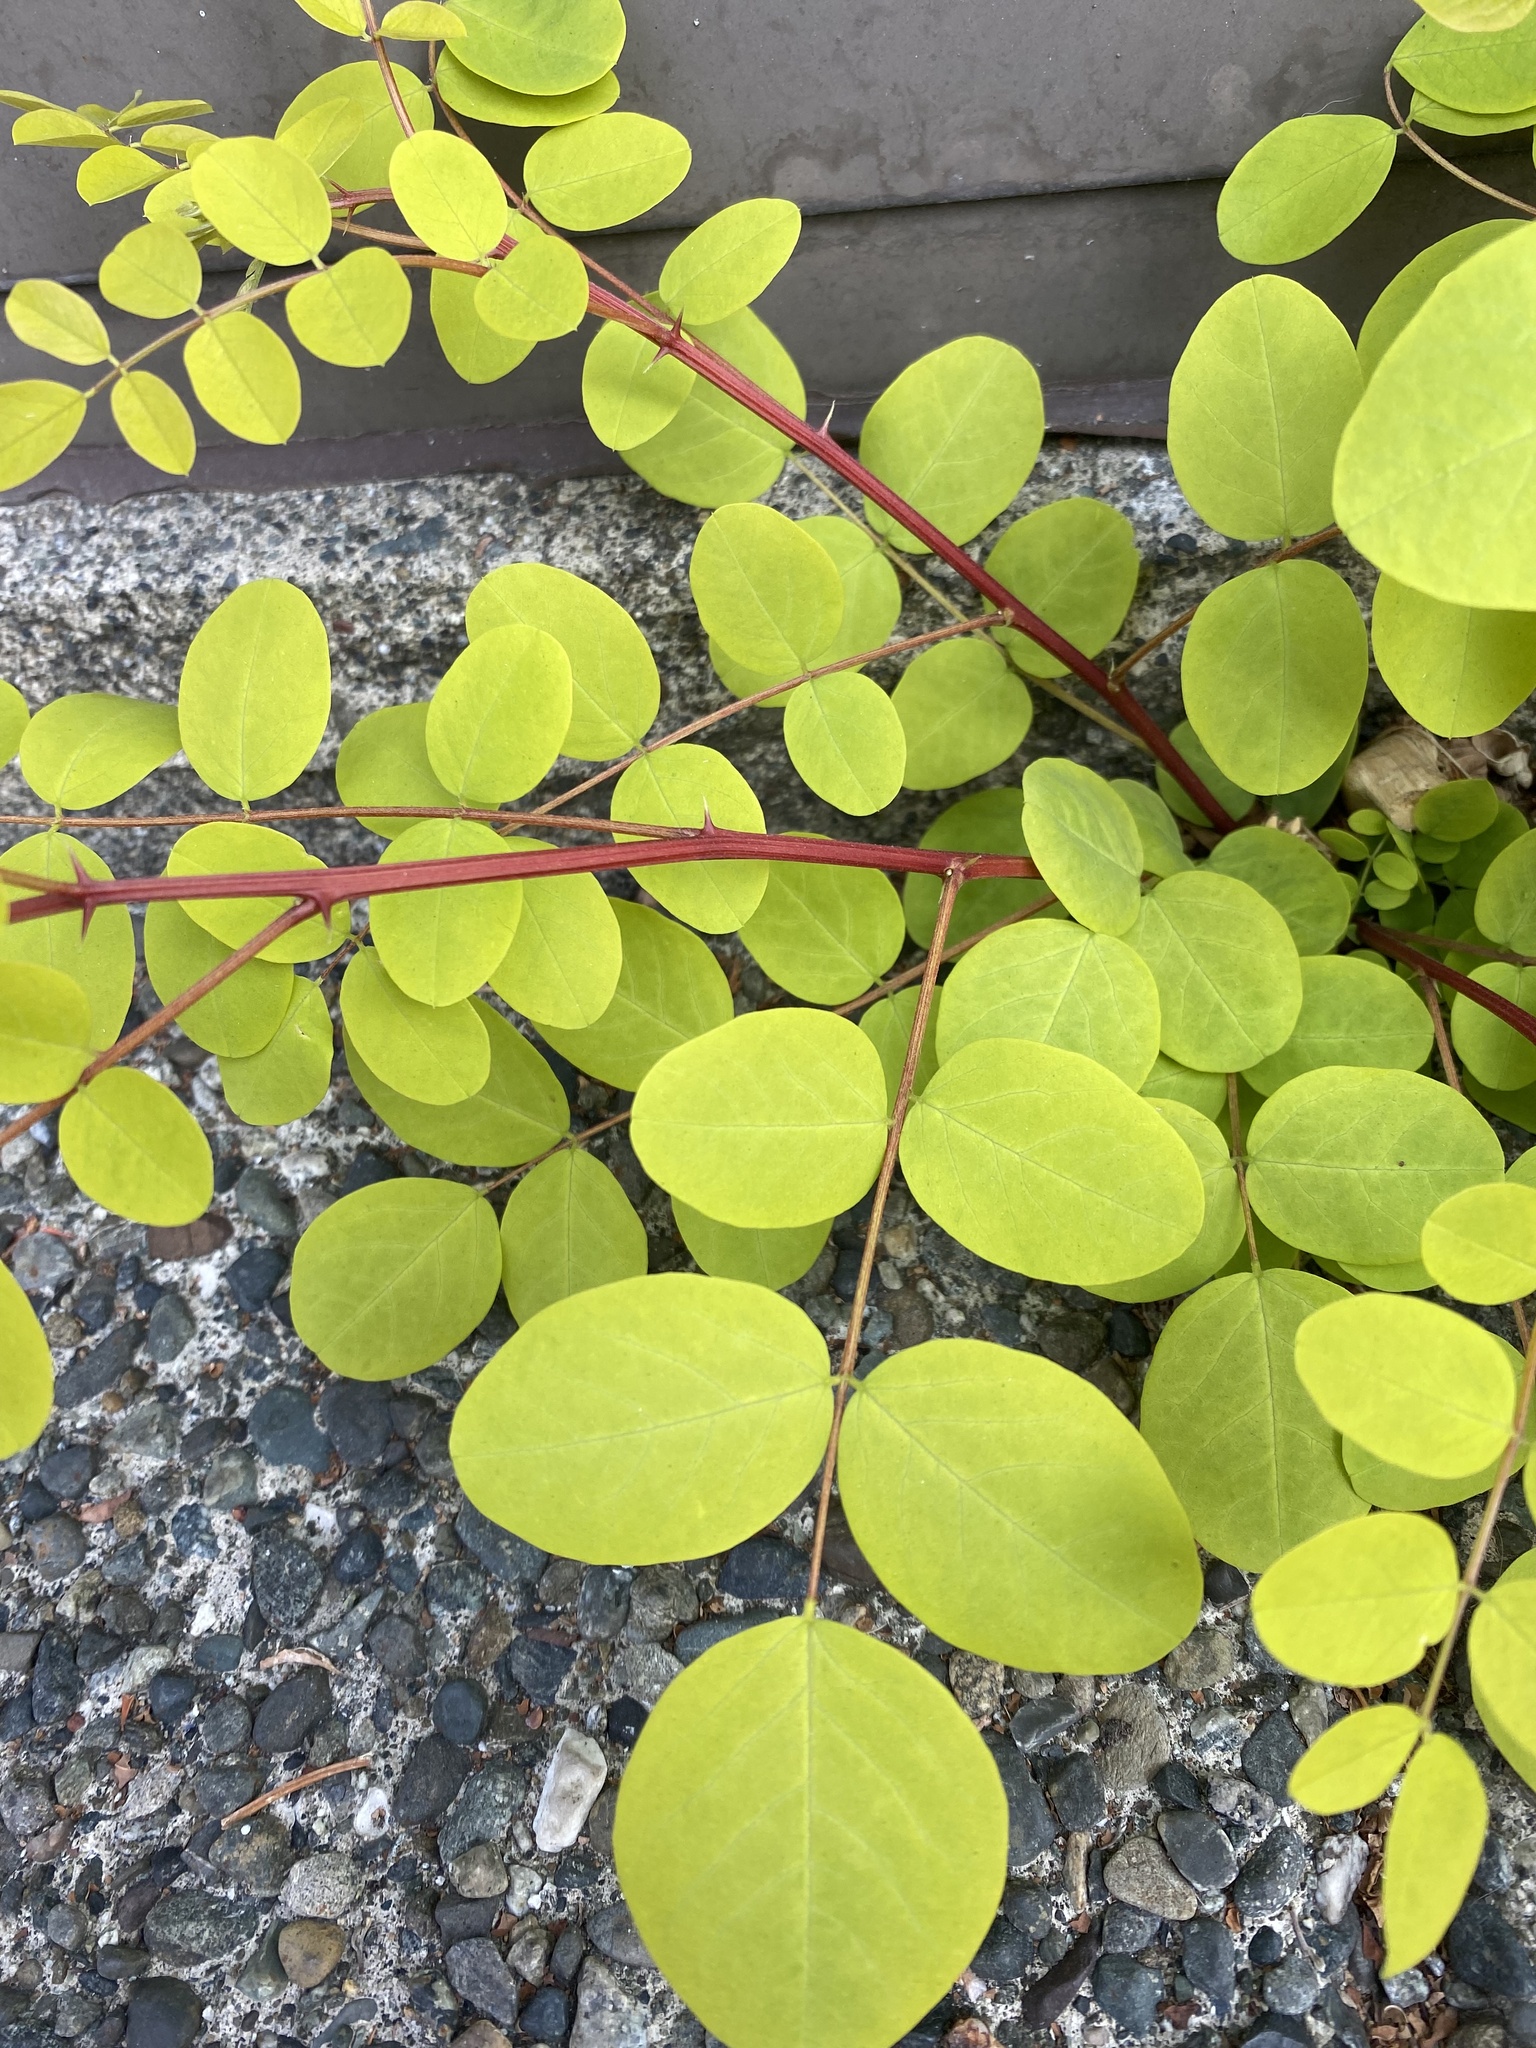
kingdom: Plantae
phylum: Tracheophyta
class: Magnoliopsida
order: Fabales
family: Fabaceae
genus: Robinia
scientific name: Robinia pseudoacacia
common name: Black locust
